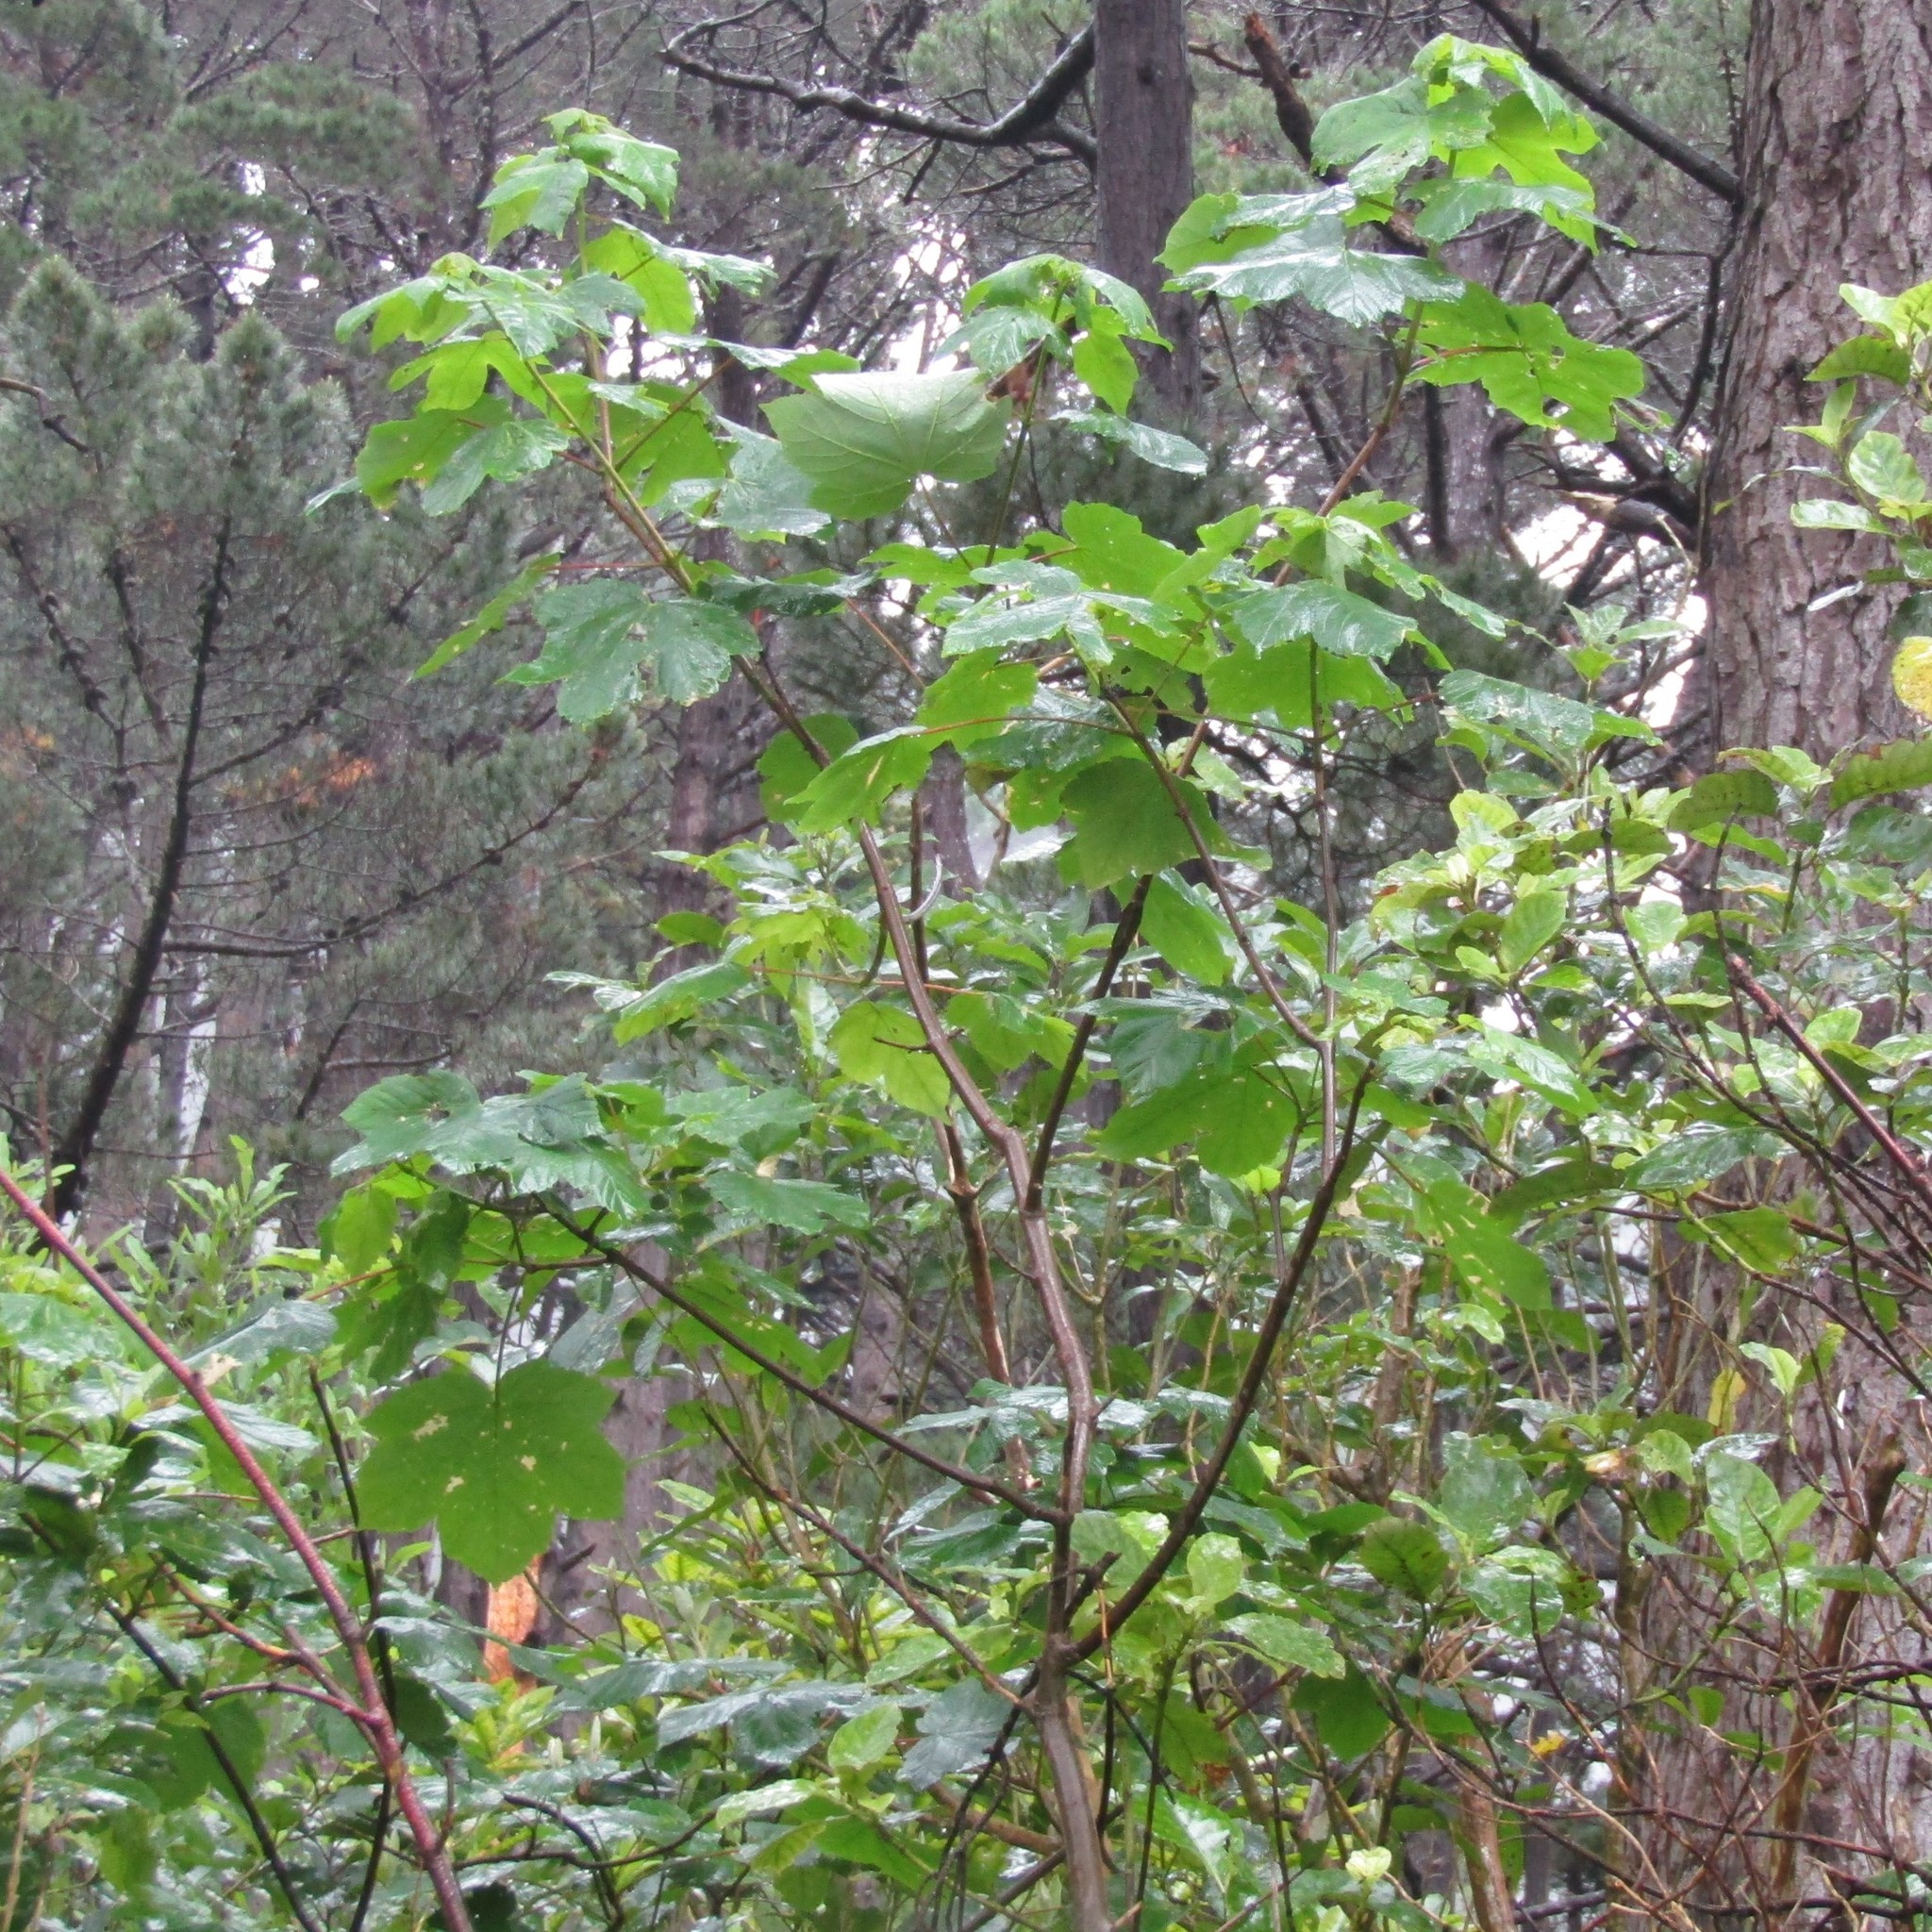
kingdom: Plantae
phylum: Tracheophyta
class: Magnoliopsida
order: Sapindales
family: Sapindaceae
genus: Acer
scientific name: Acer pseudoplatanus
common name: Sycamore
